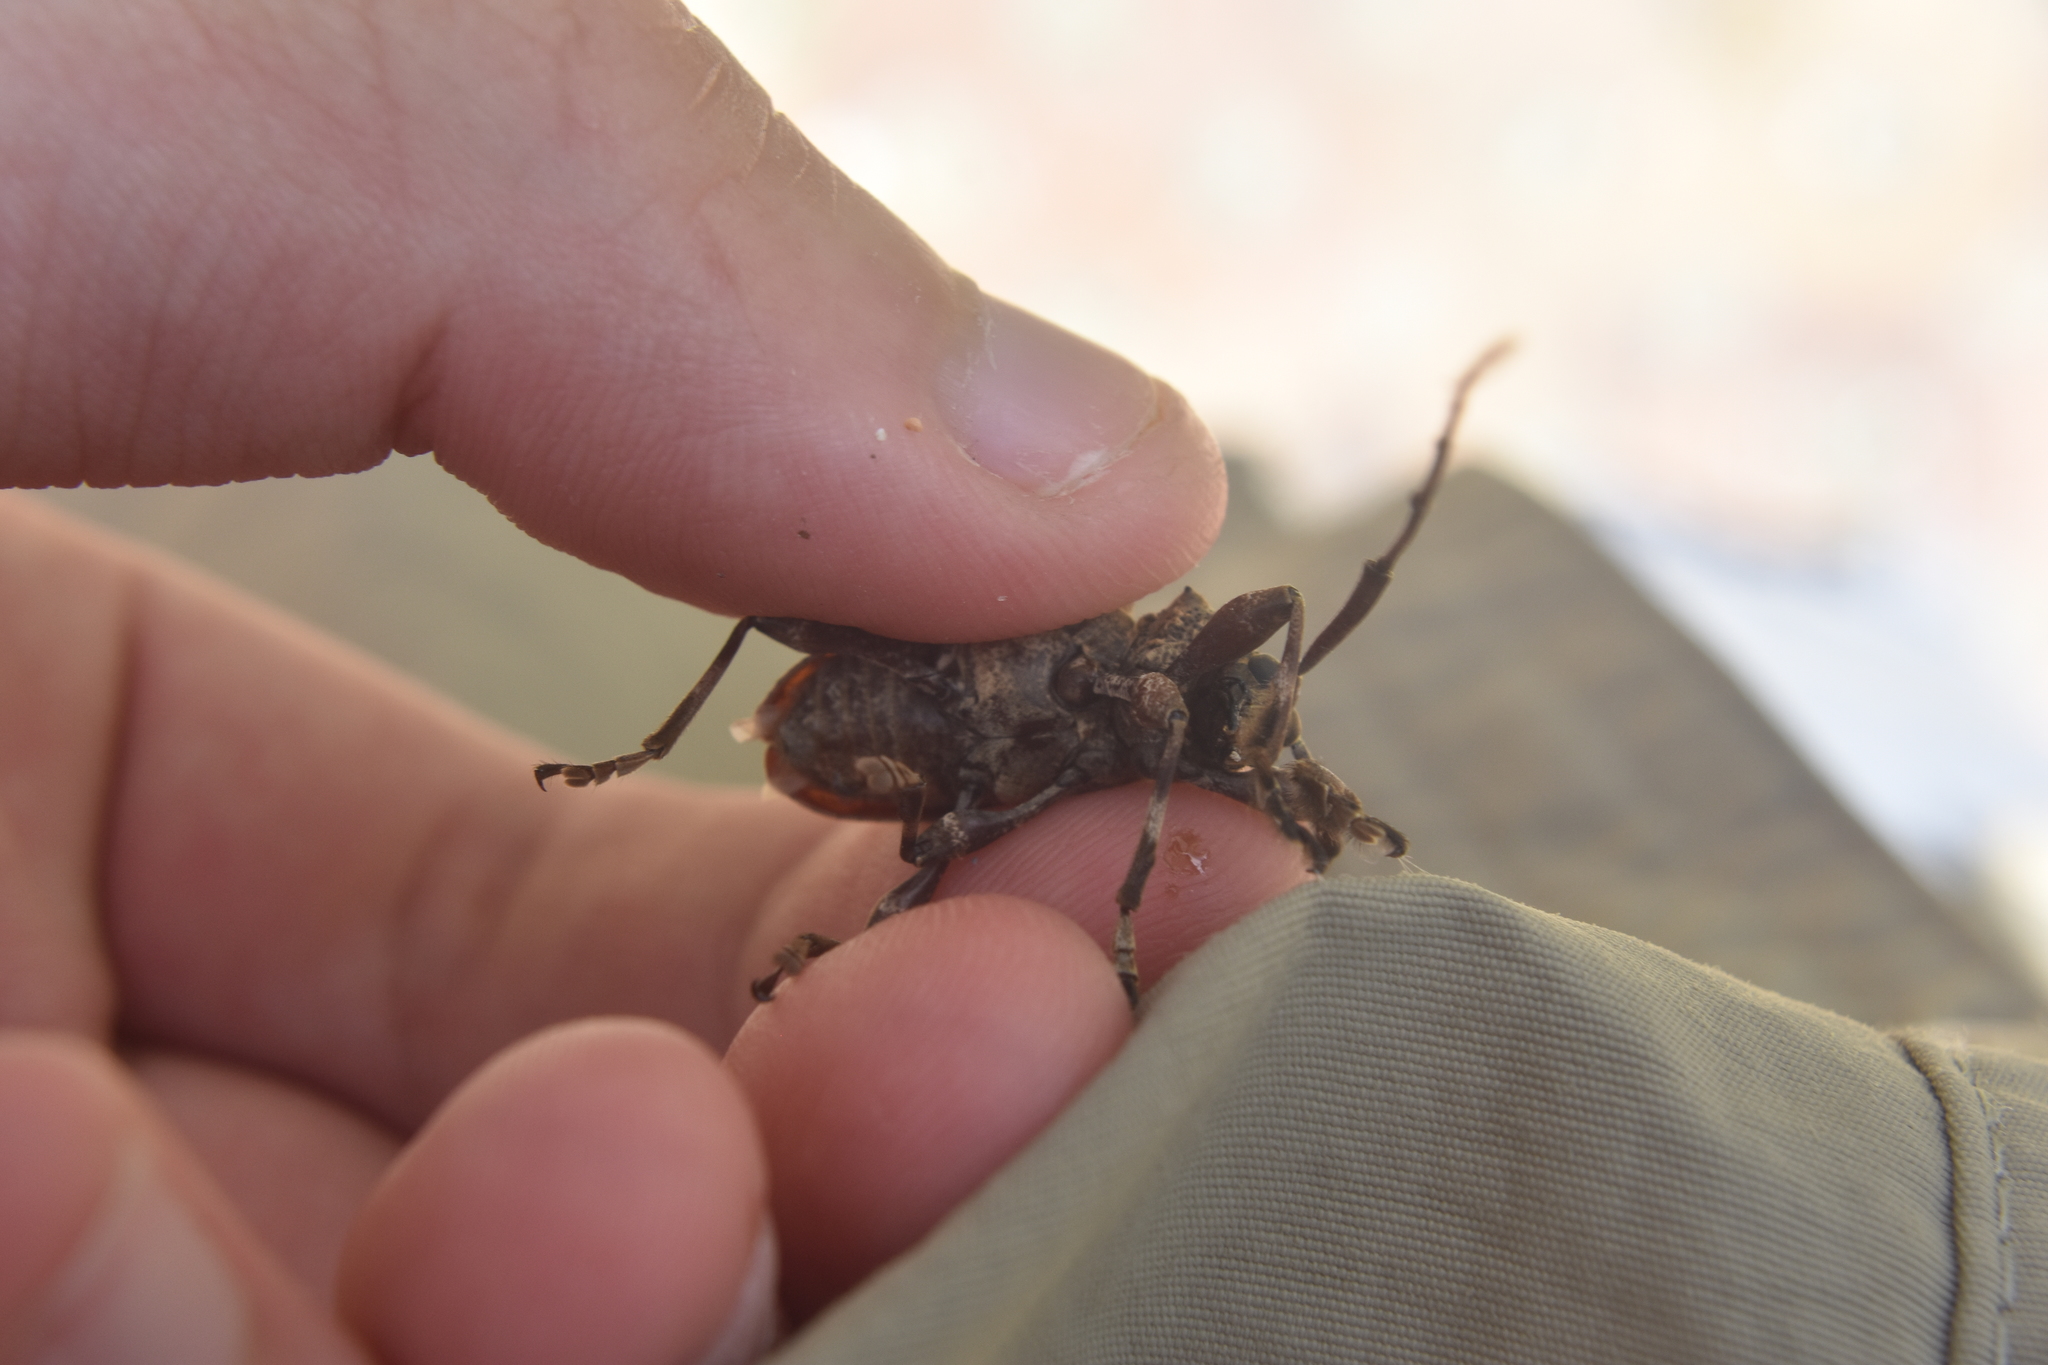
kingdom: Animalia
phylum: Arthropoda
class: Insecta
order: Coleoptera
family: Cerambycidae
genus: Lagocheirus
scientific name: Lagocheirus araneiformis
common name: Beetle
